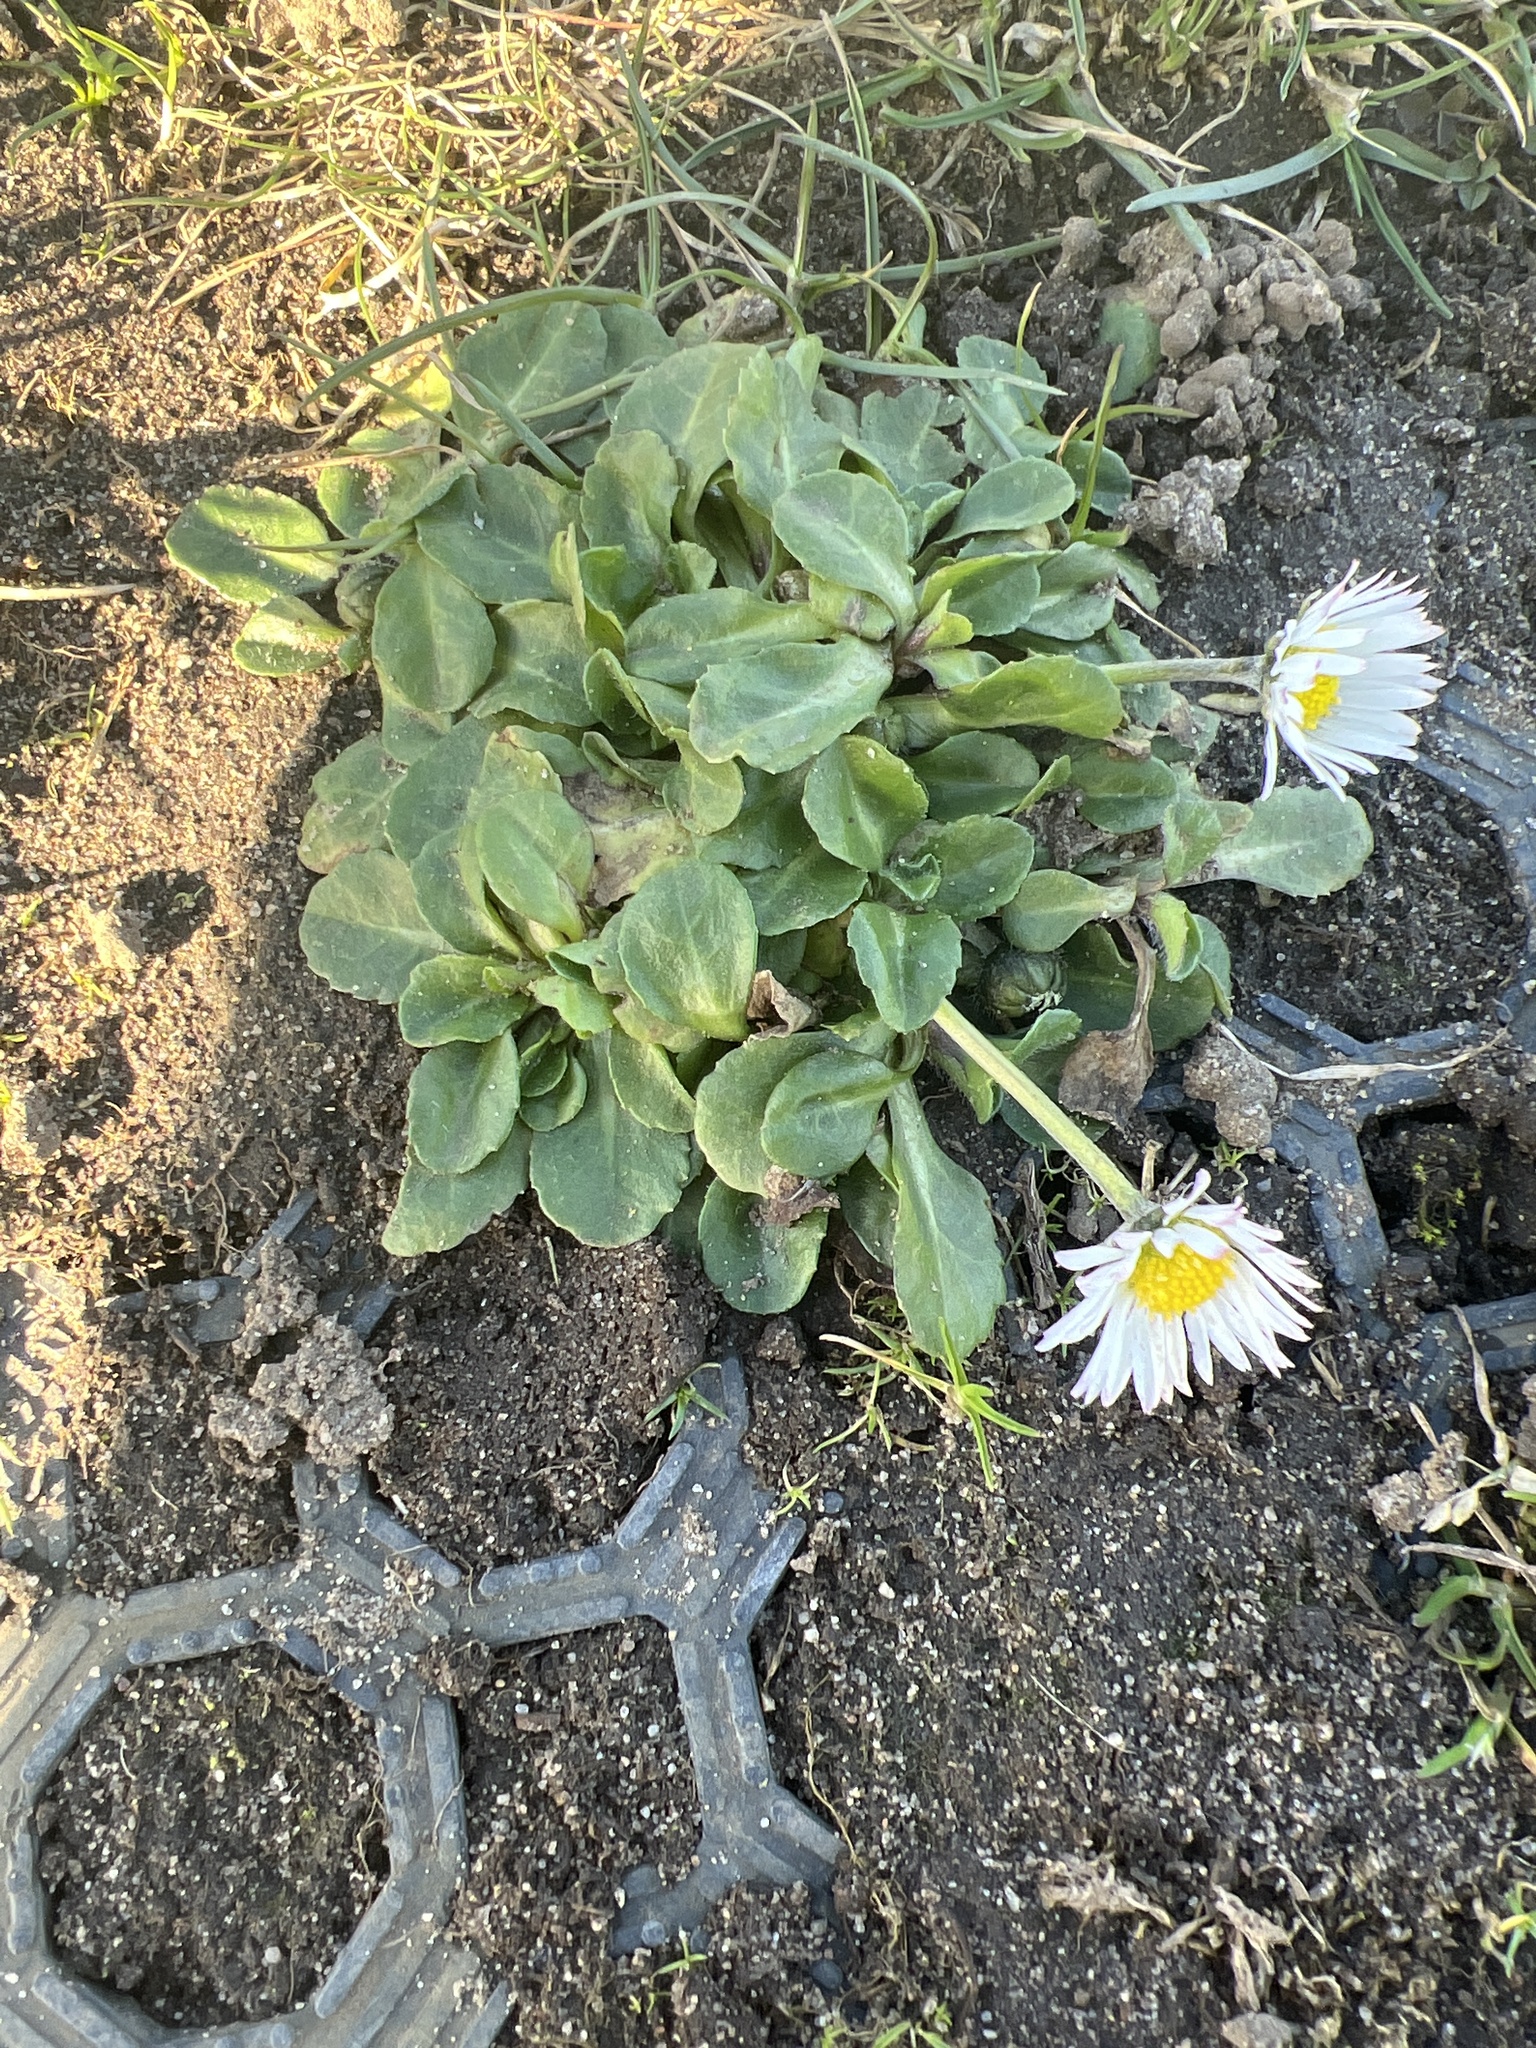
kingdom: Plantae
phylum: Tracheophyta
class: Magnoliopsida
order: Asterales
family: Asteraceae
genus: Bellis
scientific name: Bellis perennis
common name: Lawndaisy
